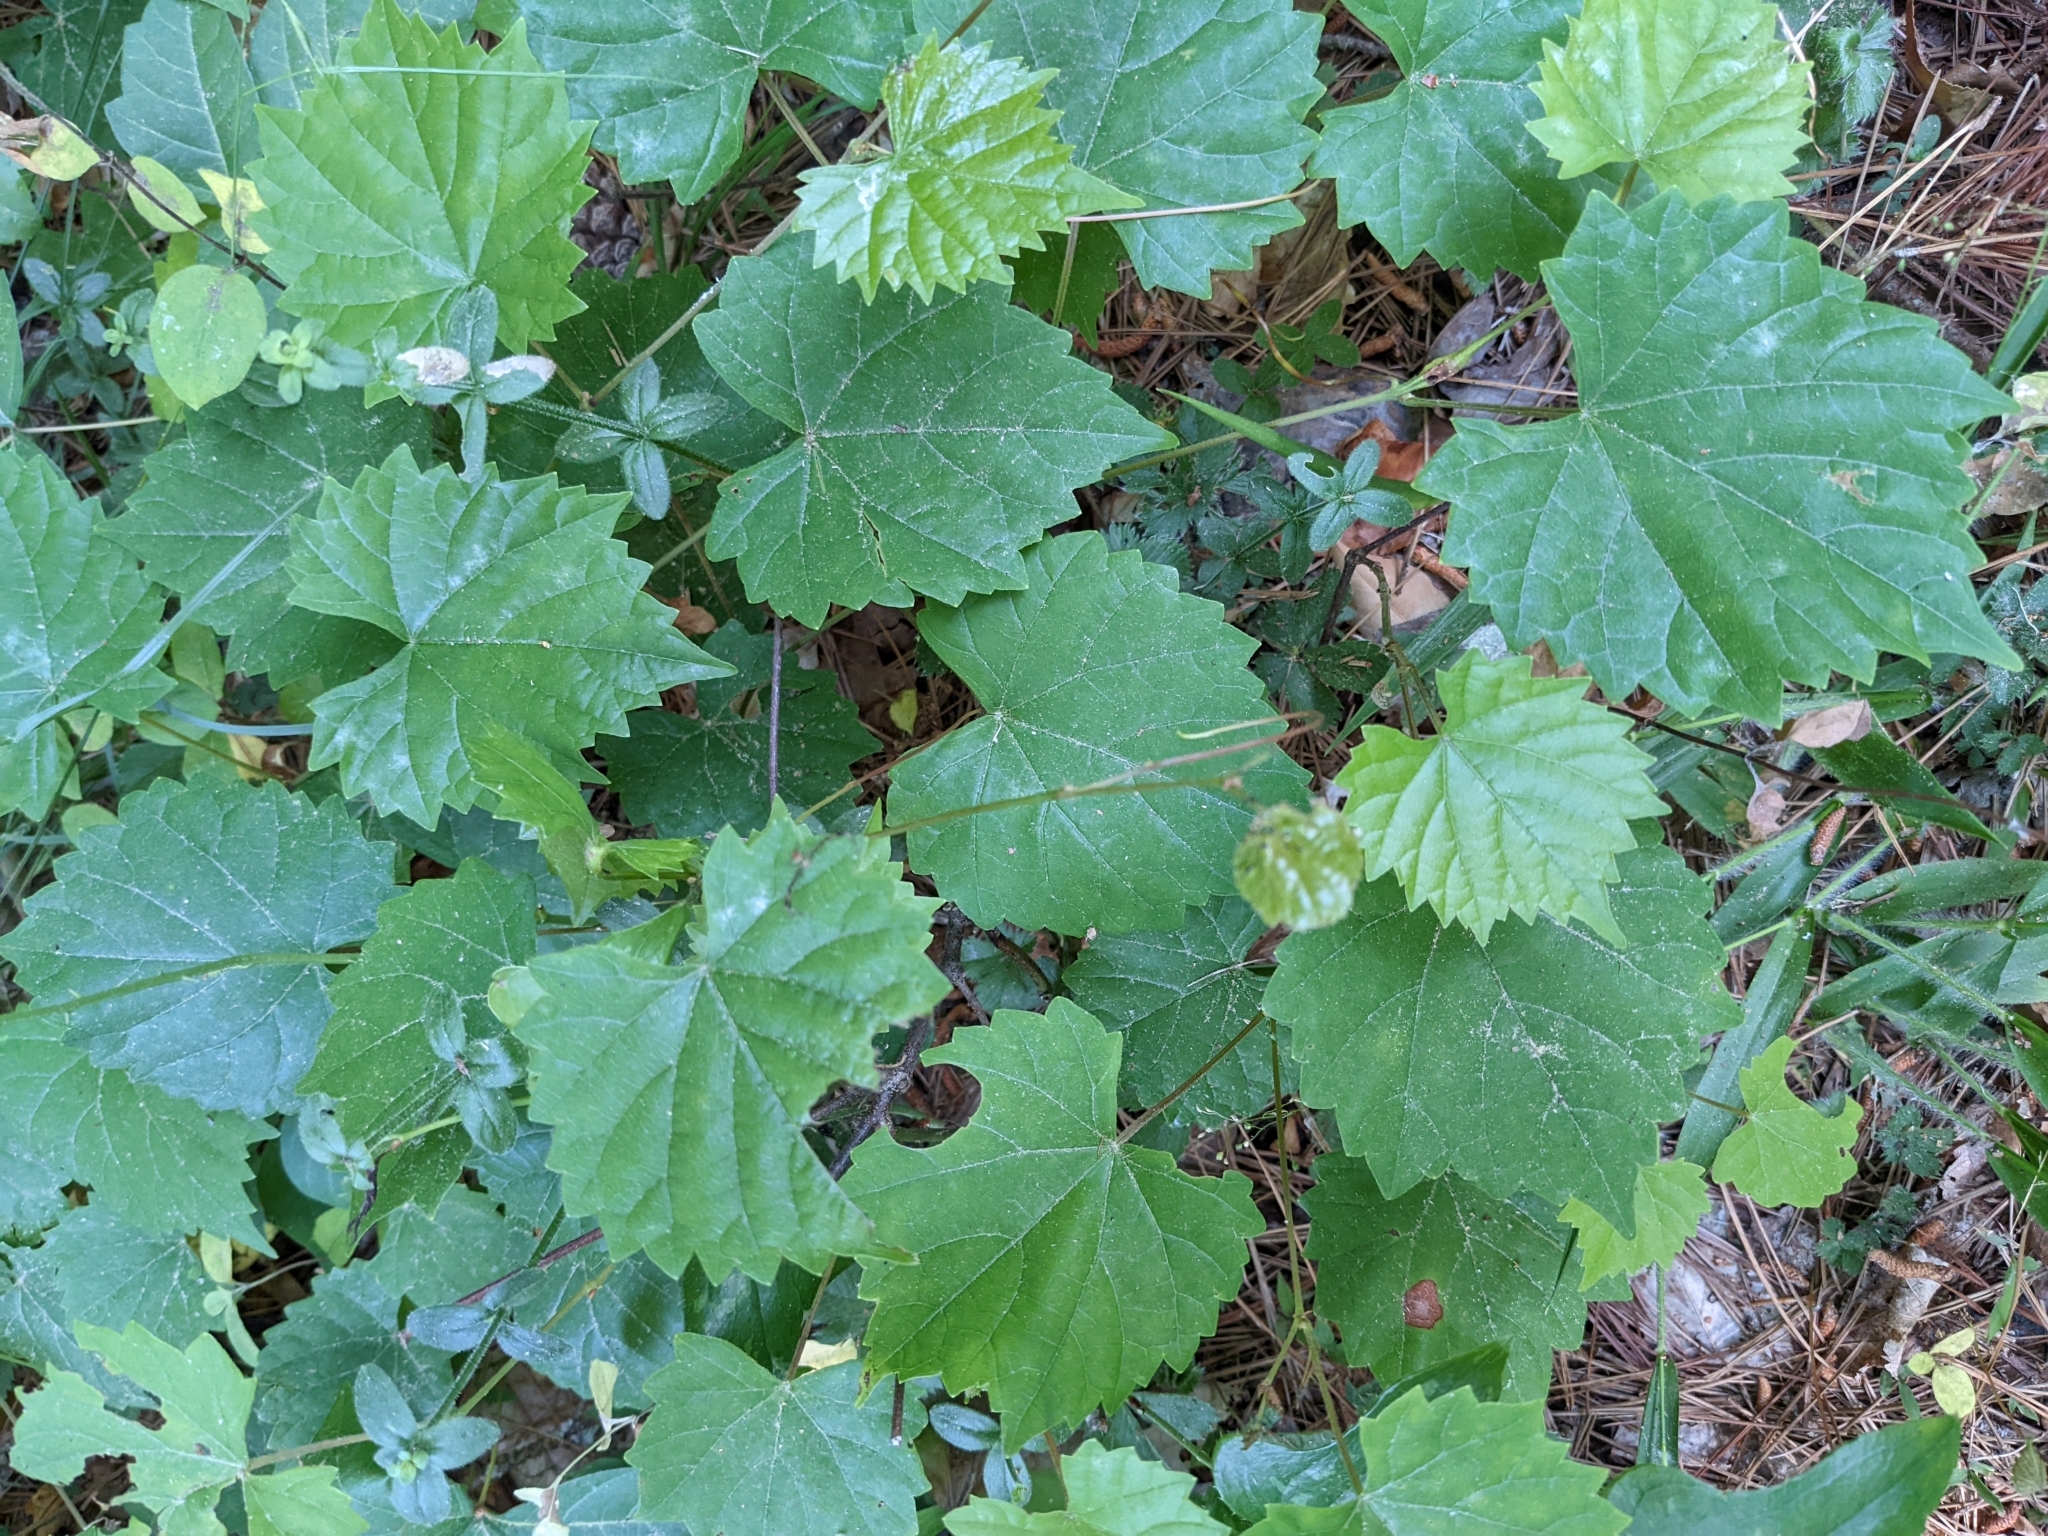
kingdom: Plantae
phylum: Tracheophyta
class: Magnoliopsida
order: Vitales
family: Vitaceae
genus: Vitis
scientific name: Vitis rotundifolia
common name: Muscadine grape
